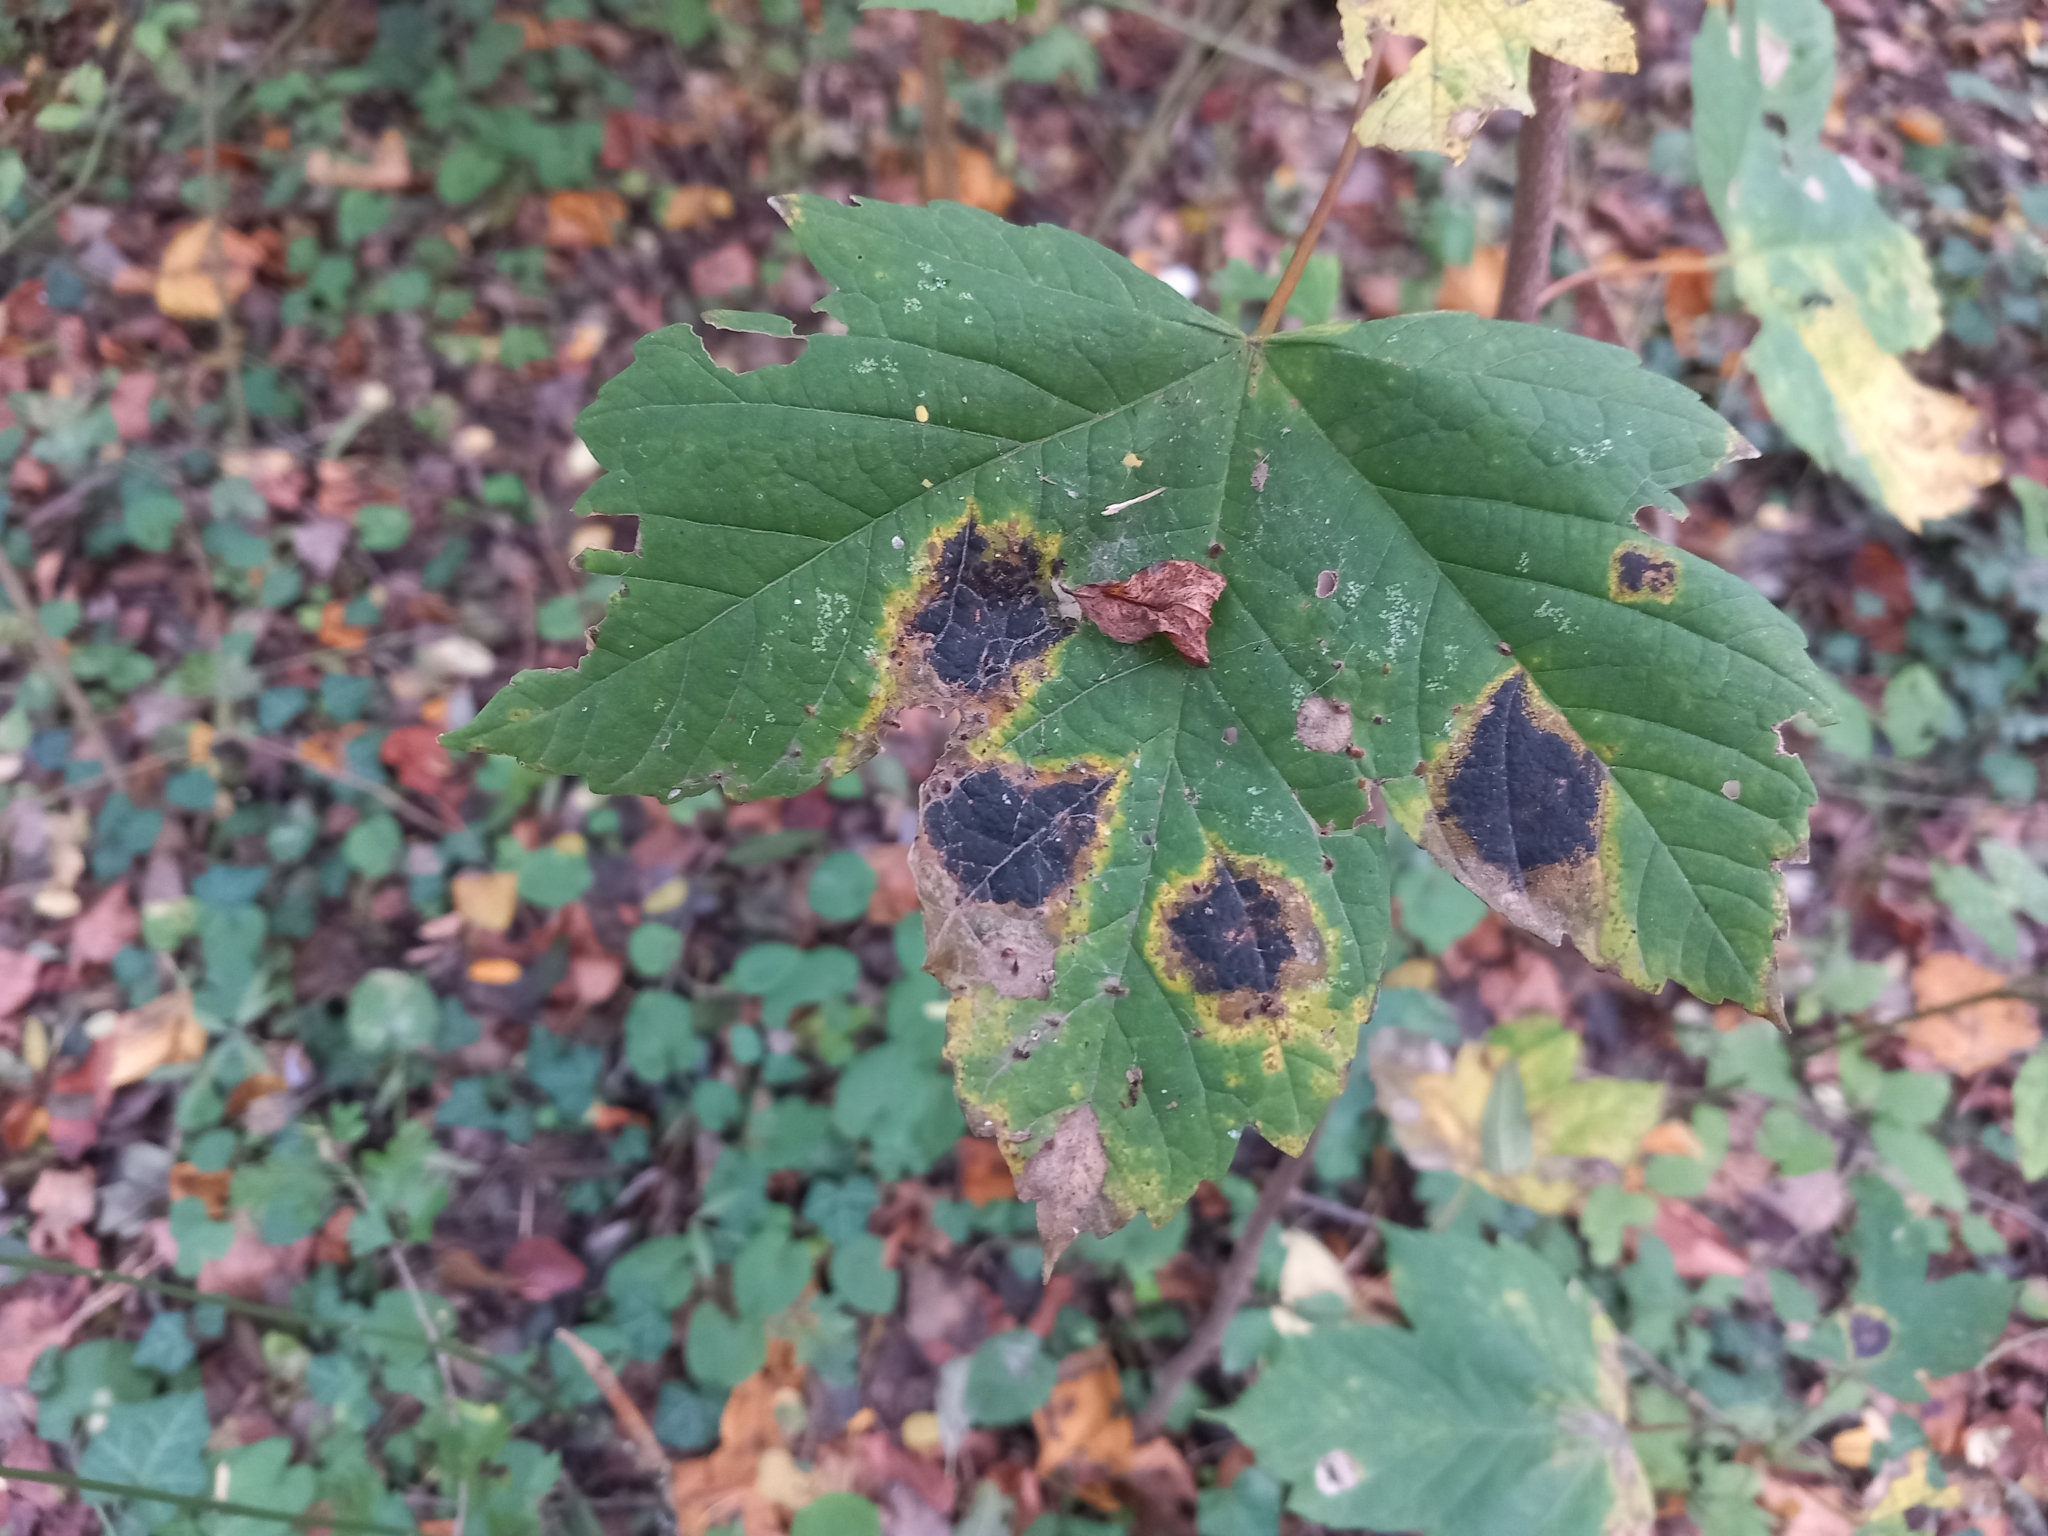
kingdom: Fungi
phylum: Ascomycota
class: Leotiomycetes
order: Rhytismatales
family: Rhytismataceae
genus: Rhytisma
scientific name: Rhytisma acerinum
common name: European tar spot
